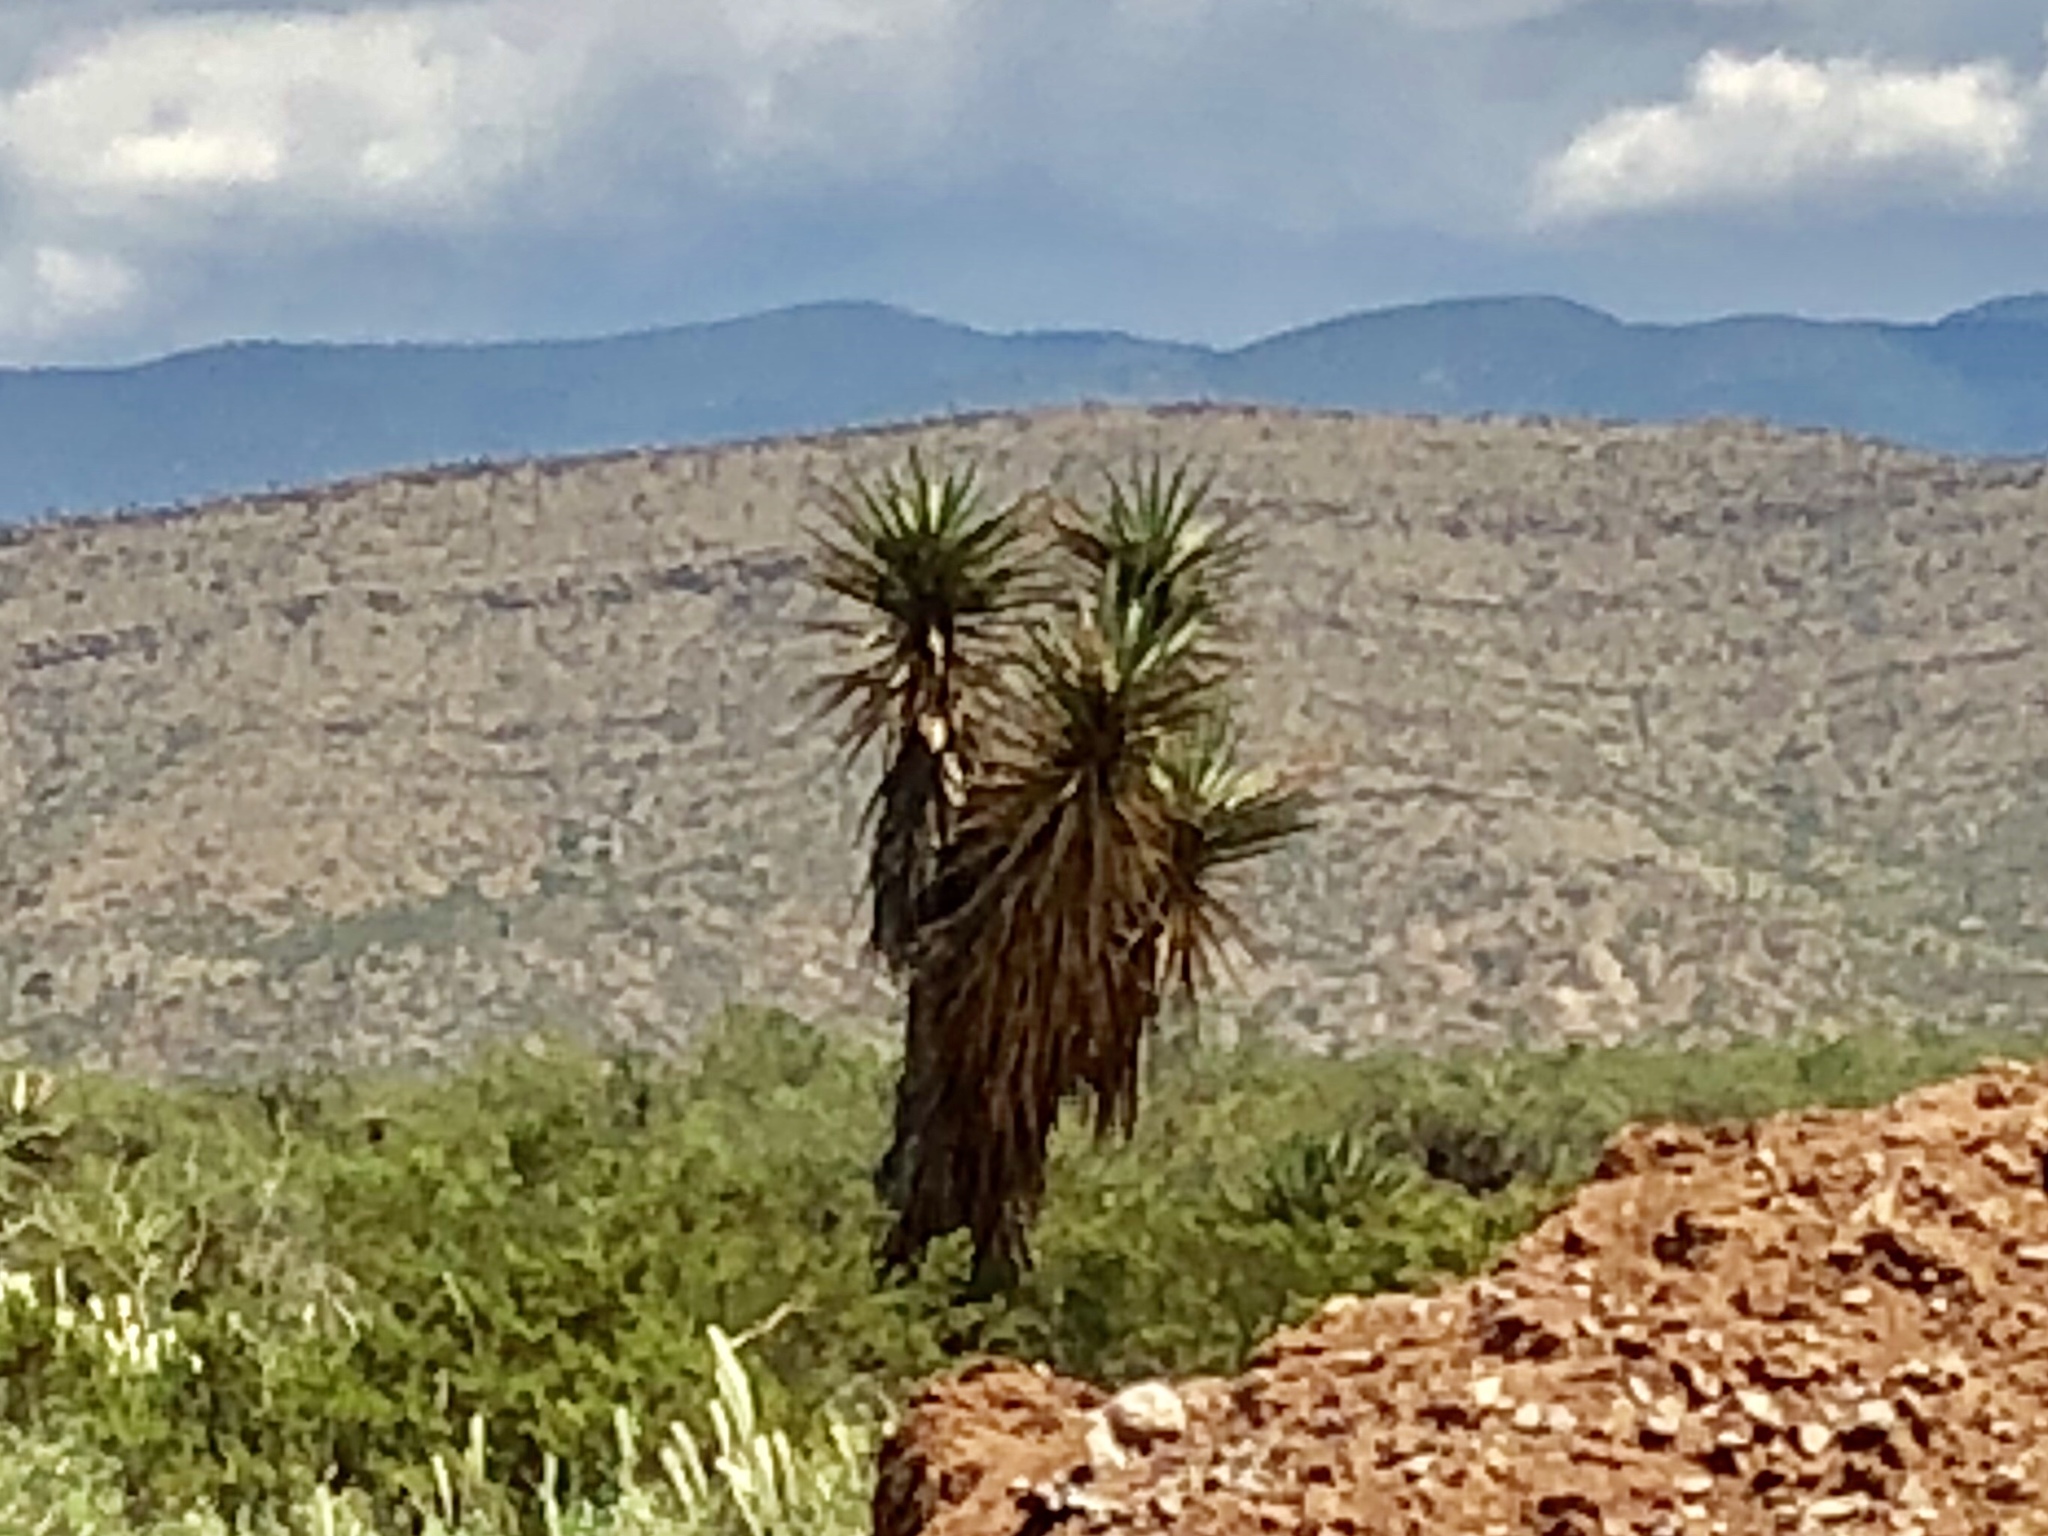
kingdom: Plantae
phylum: Tracheophyta
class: Liliopsida
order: Asparagales
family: Asparagaceae
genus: Yucca
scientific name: Yucca treculiana
